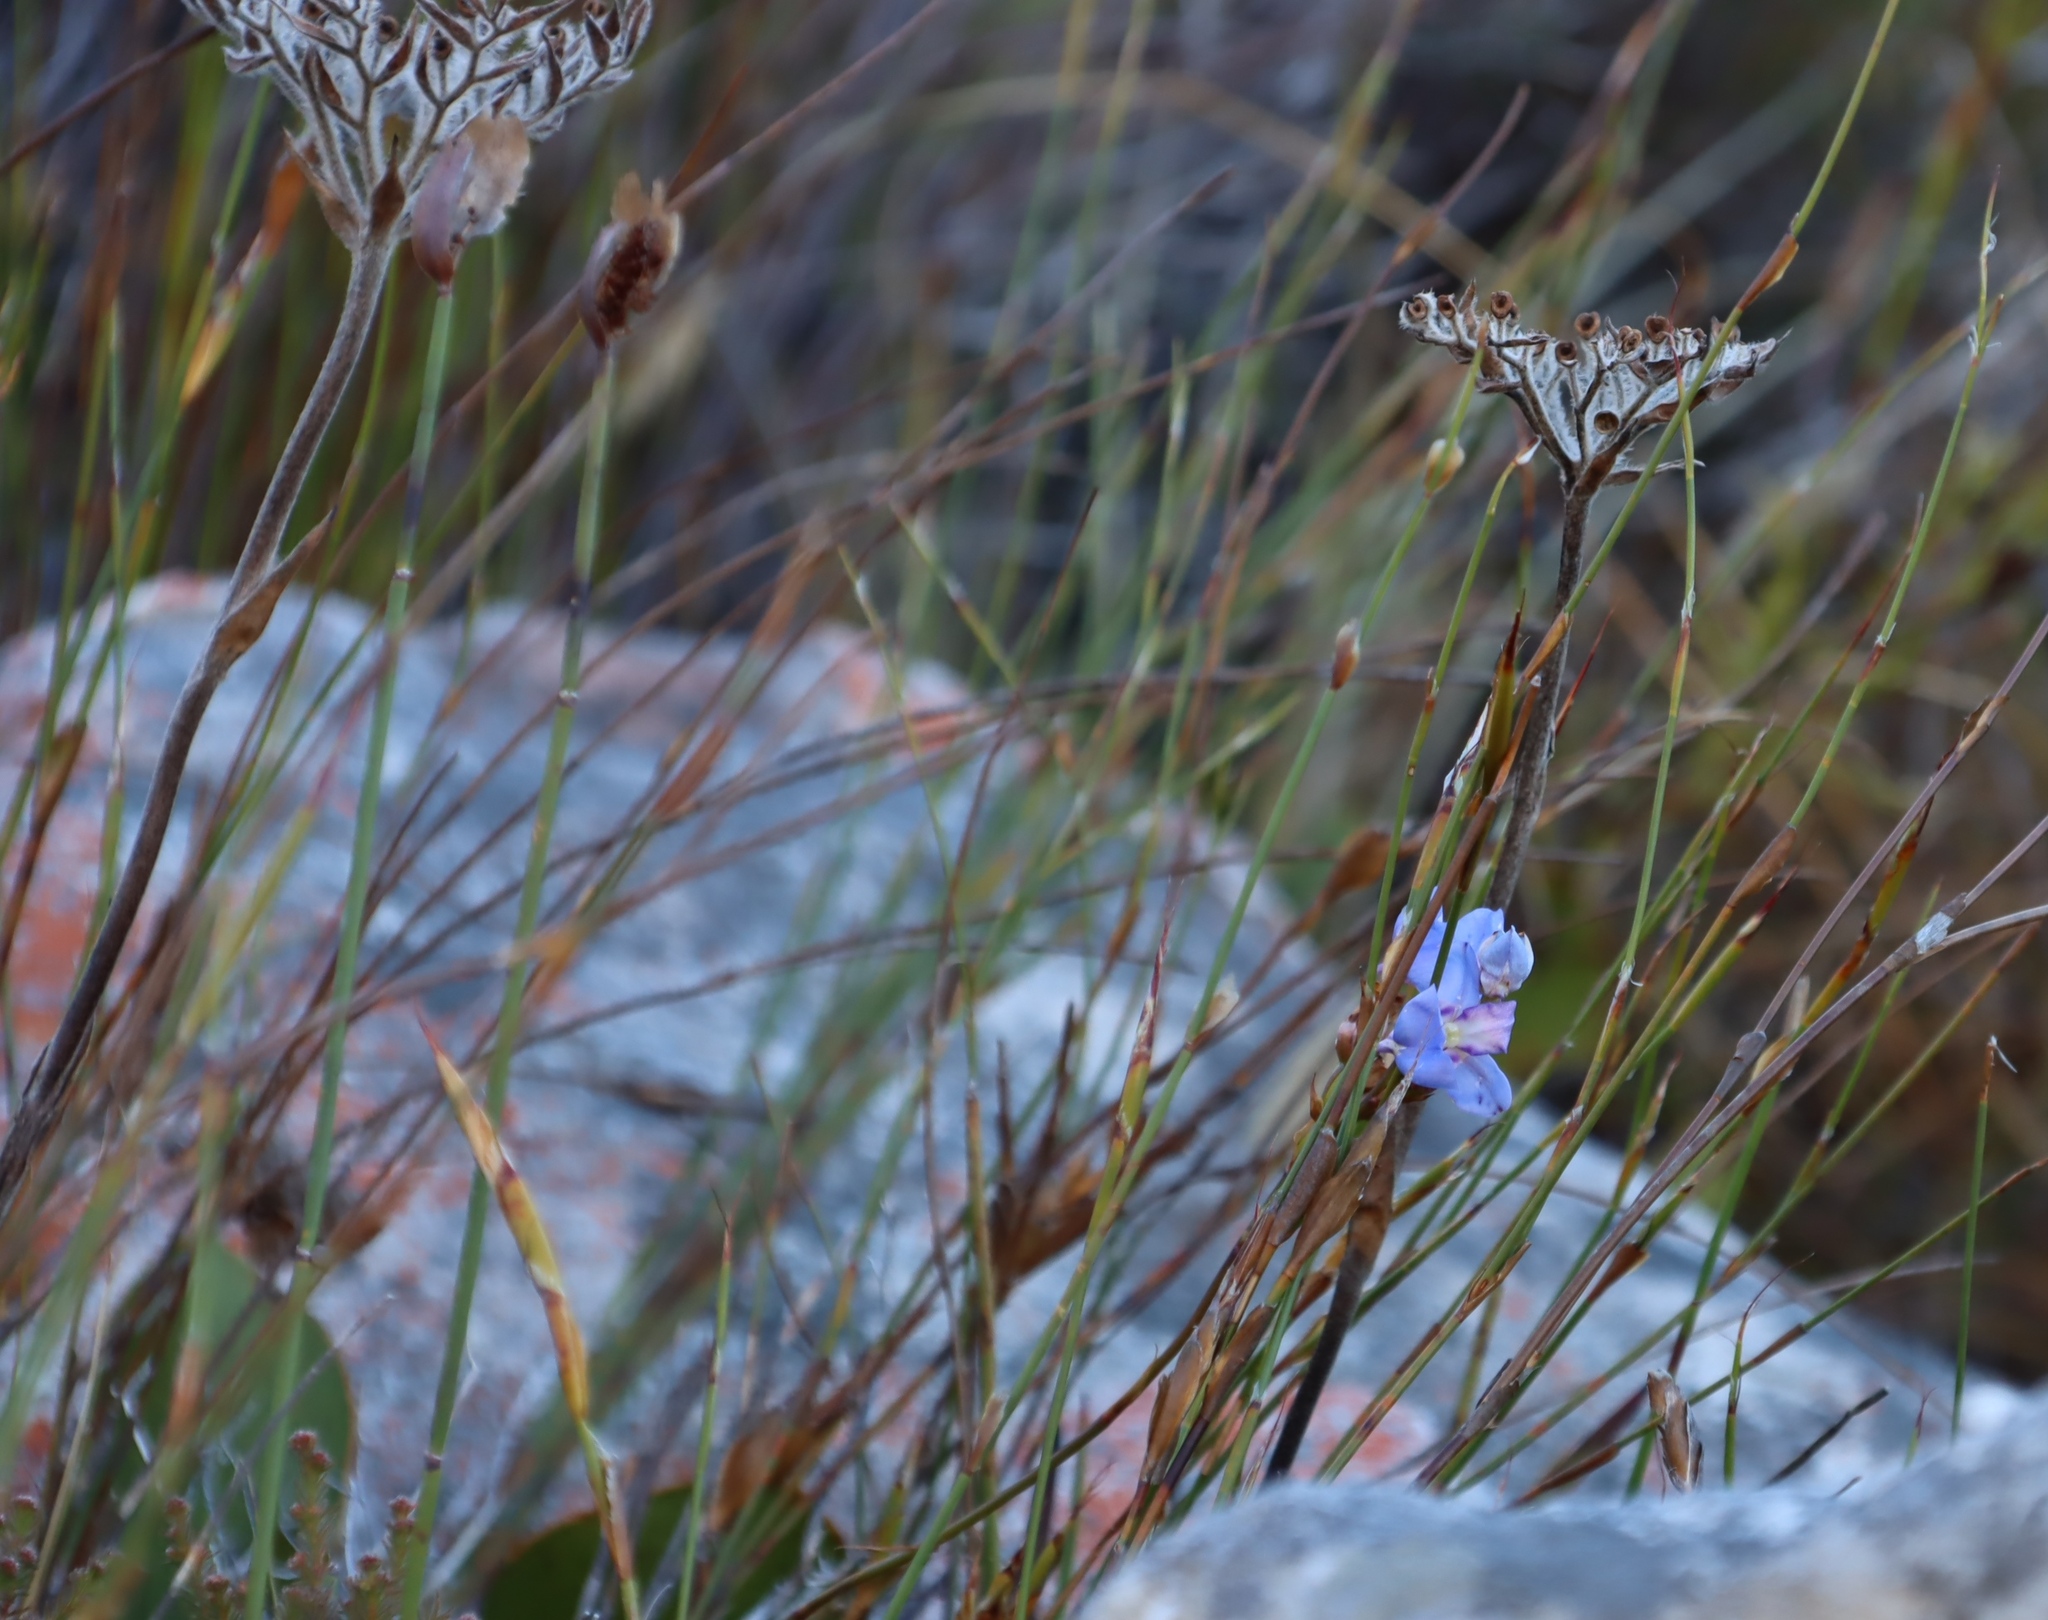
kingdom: Plantae
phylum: Tracheophyta
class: Liliopsida
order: Asparagales
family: Orchidaceae
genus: Disa
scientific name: Disa graminifolia
